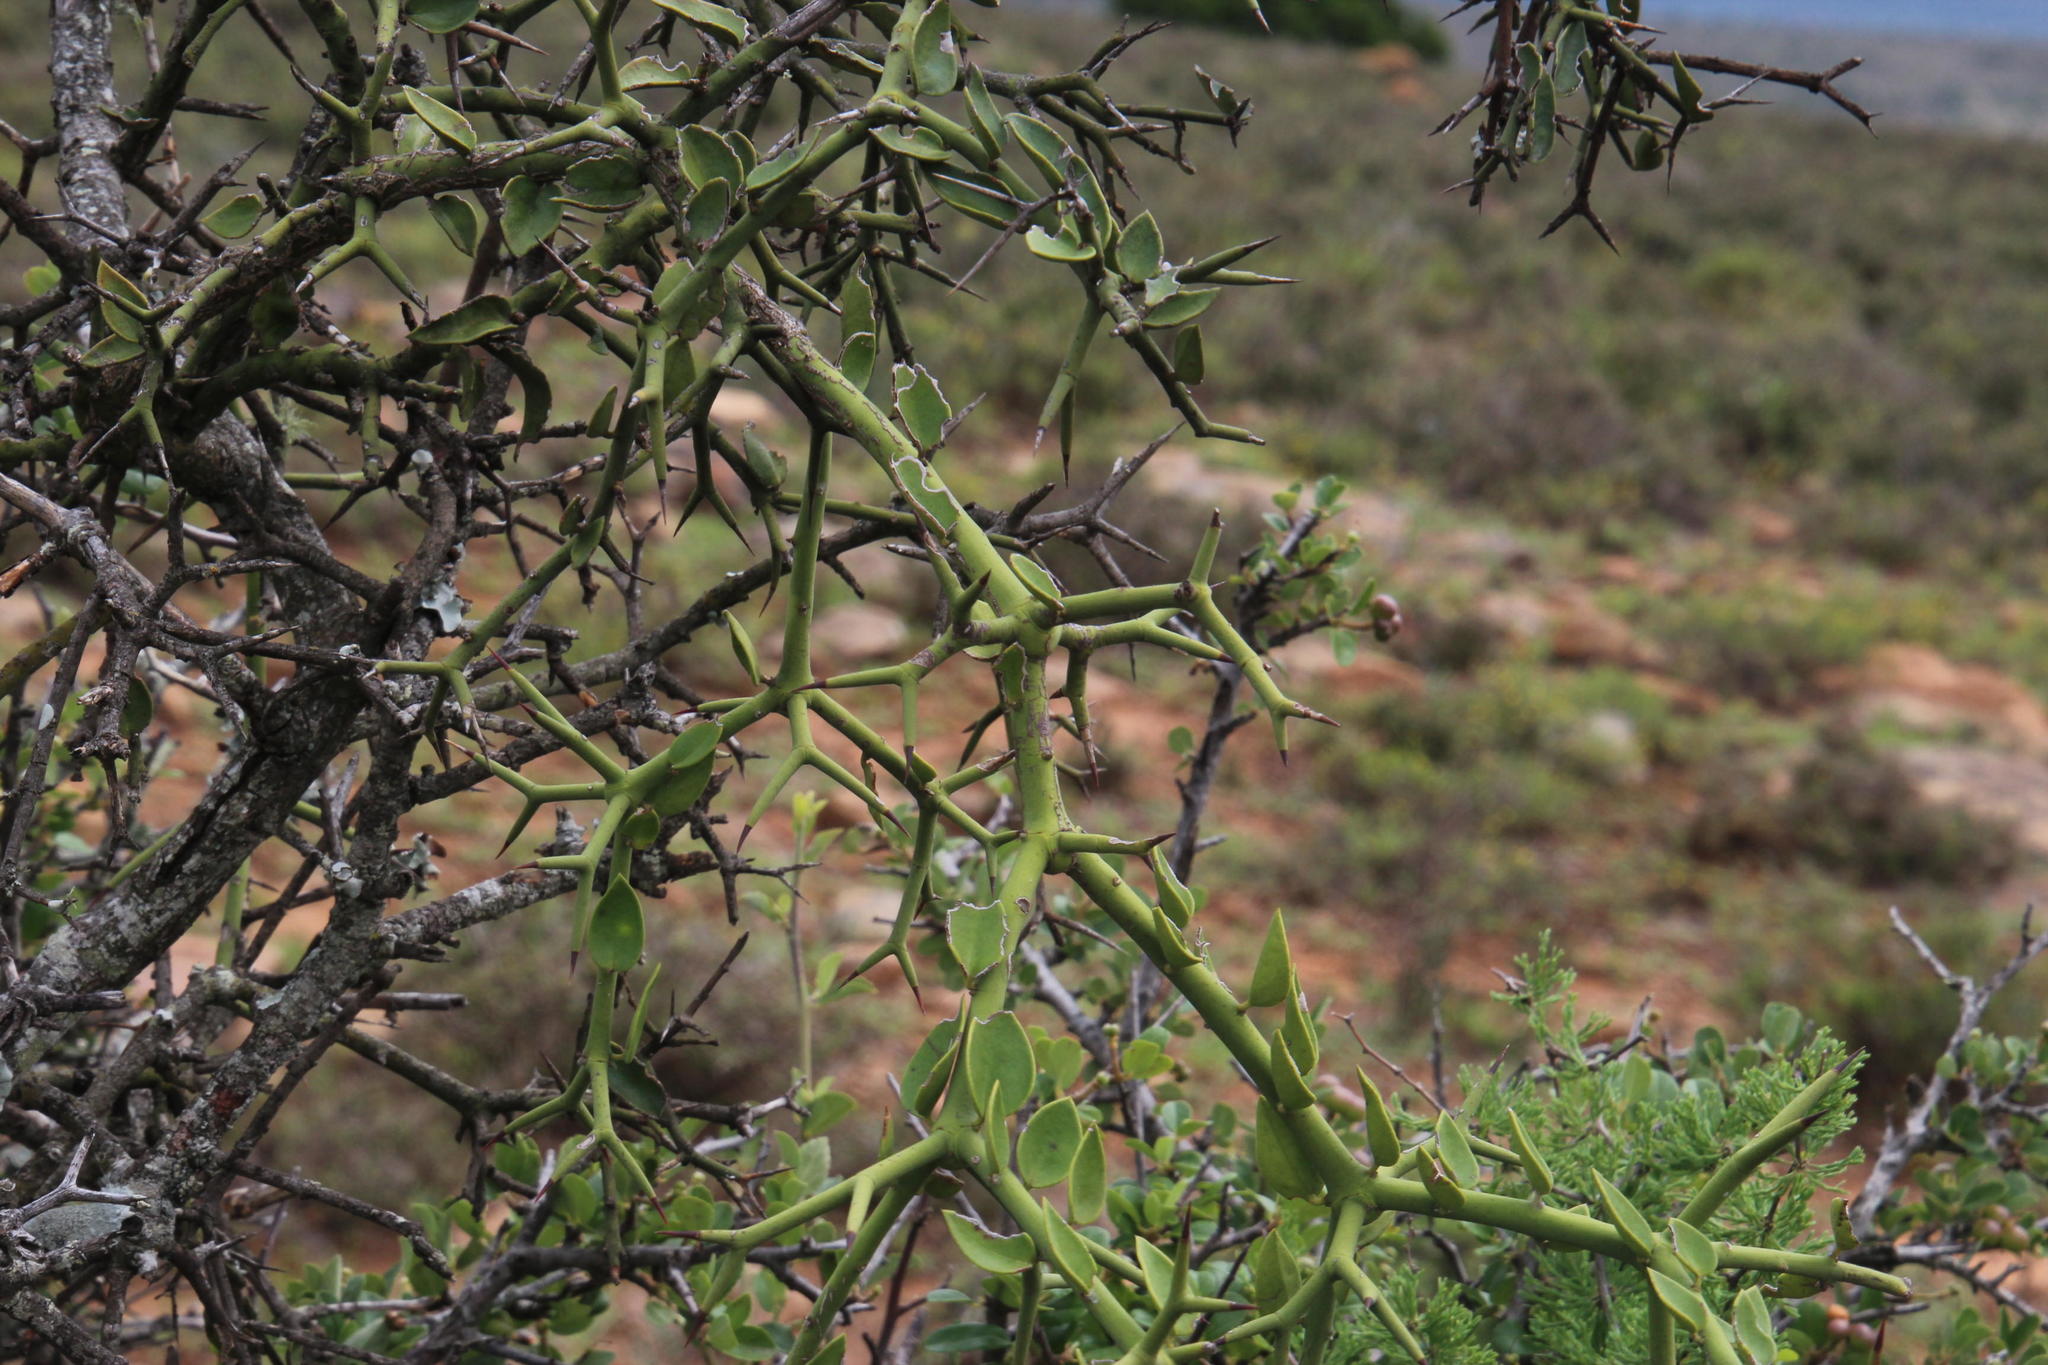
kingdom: Plantae
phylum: Tracheophyta
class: Magnoliopsida
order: Gentianales
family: Apocynaceae
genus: Carissa
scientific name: Carissa haematocarpa
